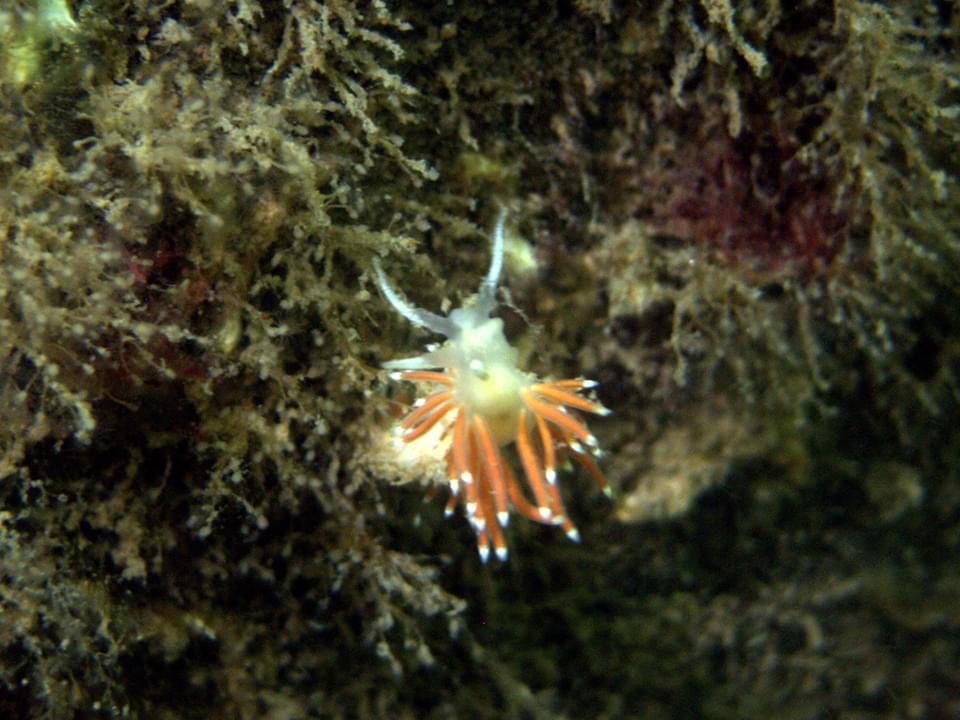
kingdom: Animalia
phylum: Mollusca
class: Gastropoda
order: Nudibranchia
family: Coryphellidae
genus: Coryphella
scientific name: Coryphella gracilis
